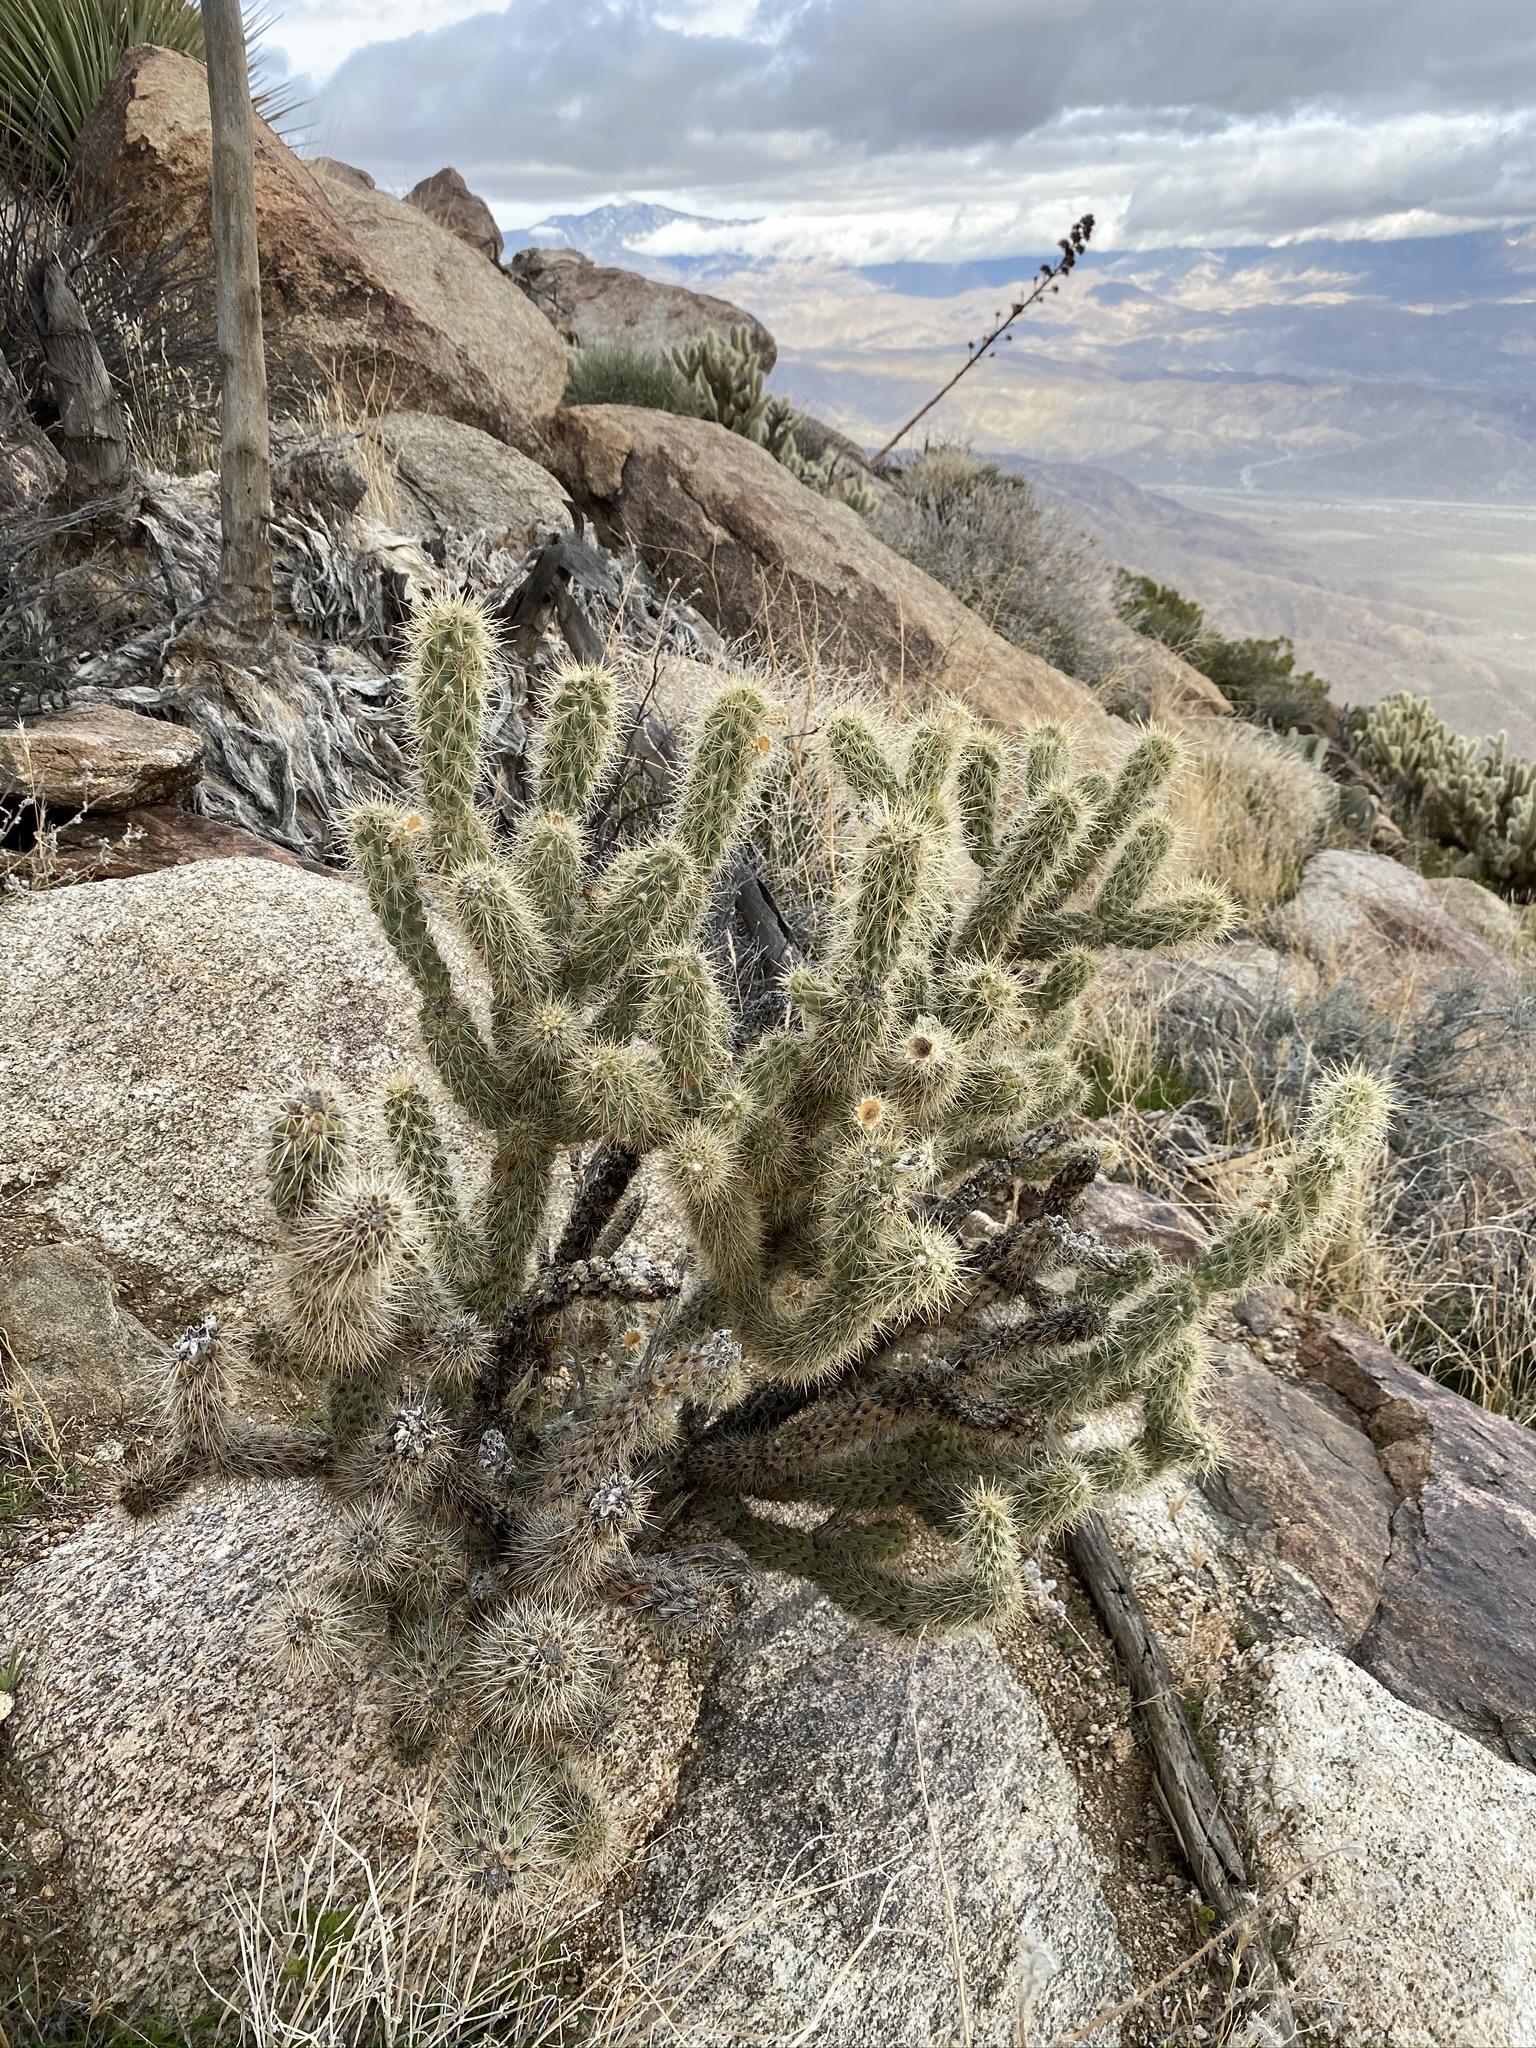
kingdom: Plantae
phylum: Tracheophyta
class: Magnoliopsida
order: Caryophyllales
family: Cactaceae
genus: Cylindropuntia
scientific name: Cylindropuntia ganderi
